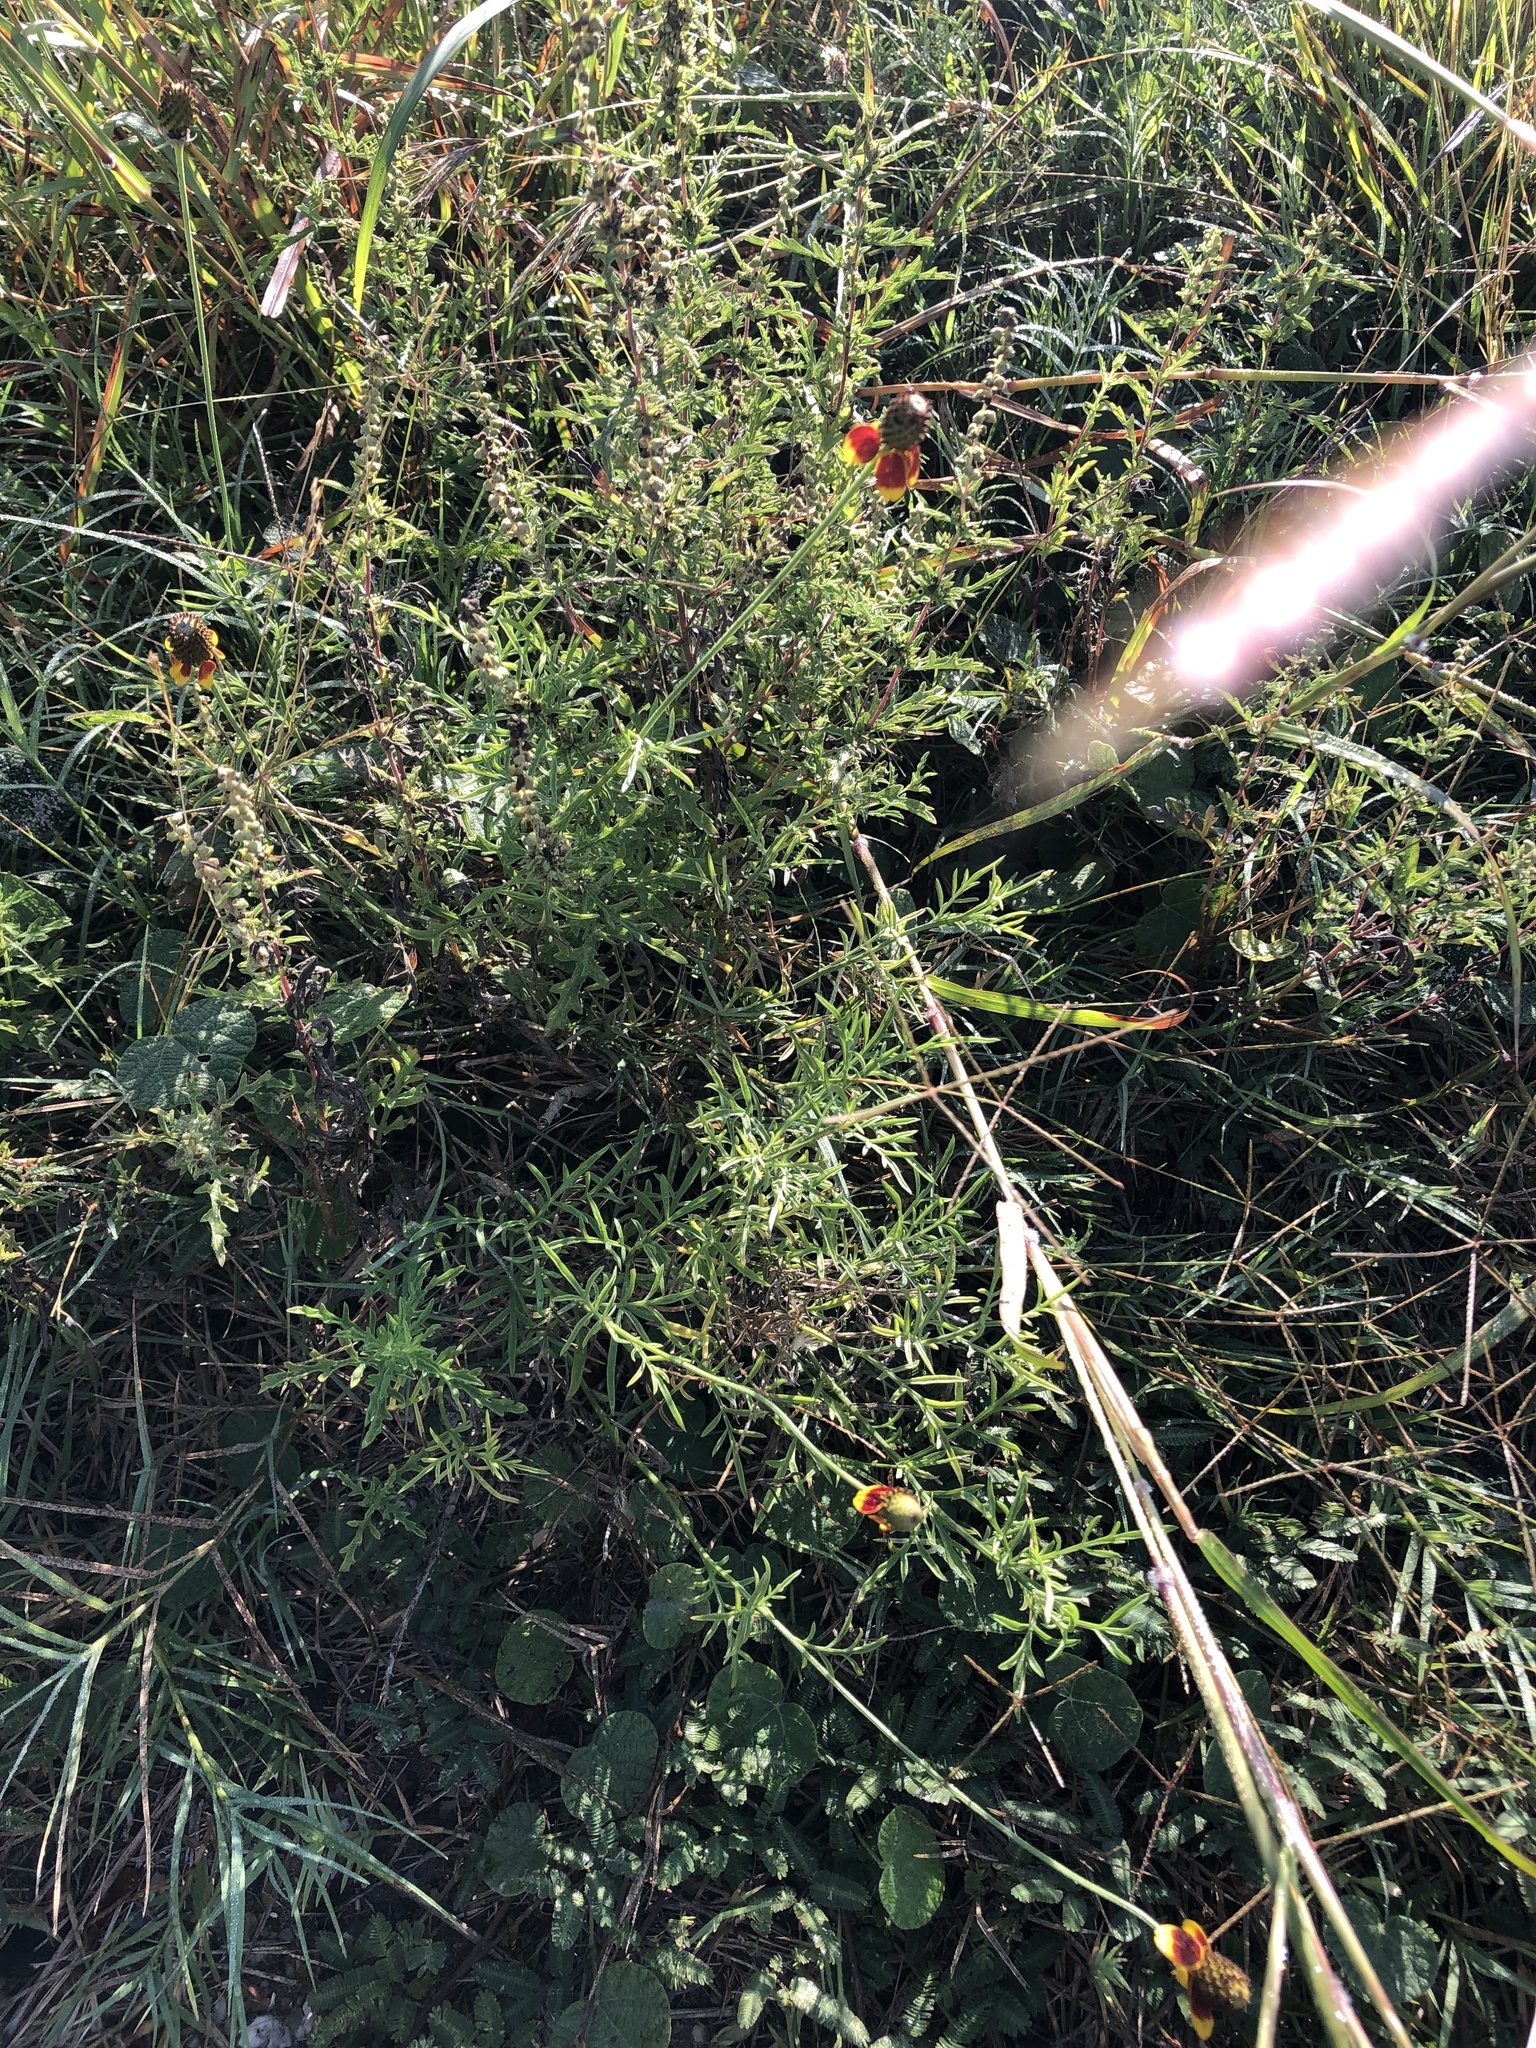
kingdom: Plantae
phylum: Tracheophyta
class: Magnoliopsida
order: Asterales
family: Asteraceae
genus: Ratibida
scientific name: Ratibida columnifera
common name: Prairie coneflower
